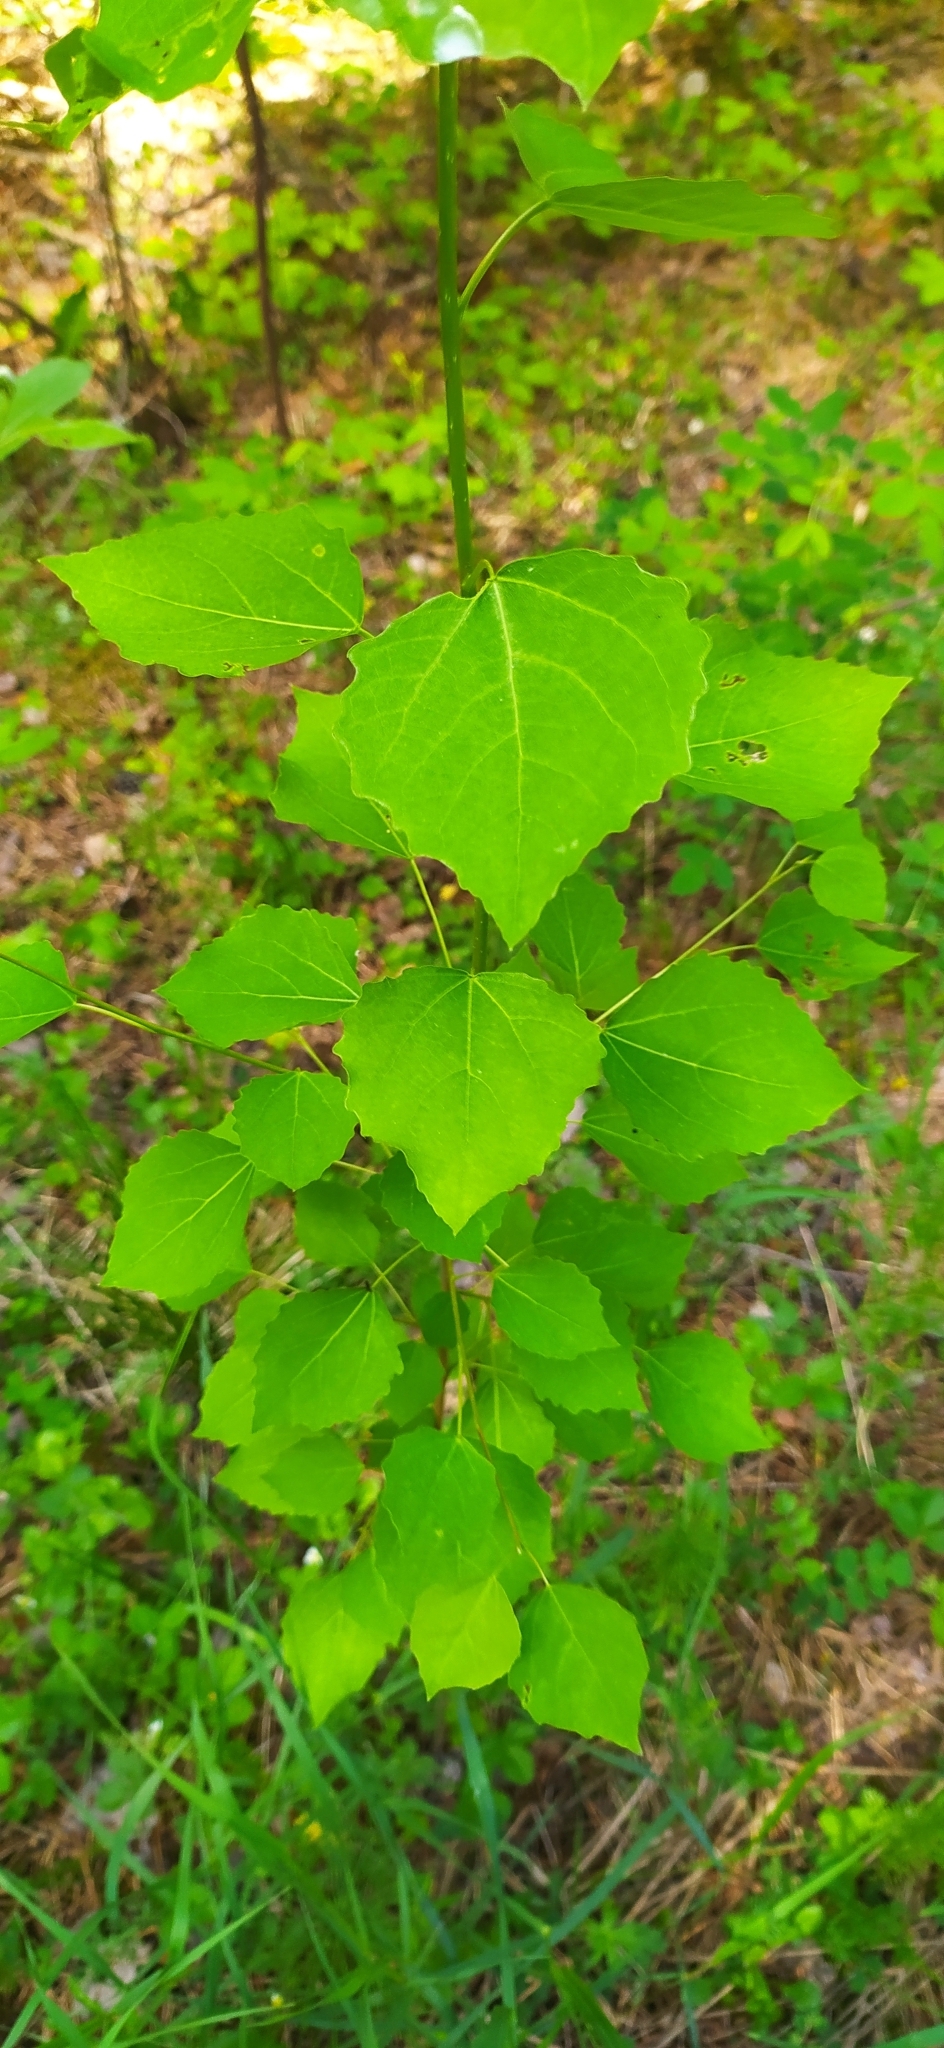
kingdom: Plantae
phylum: Tracheophyta
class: Magnoliopsida
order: Malpighiales
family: Salicaceae
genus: Populus
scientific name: Populus tremula
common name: European aspen
